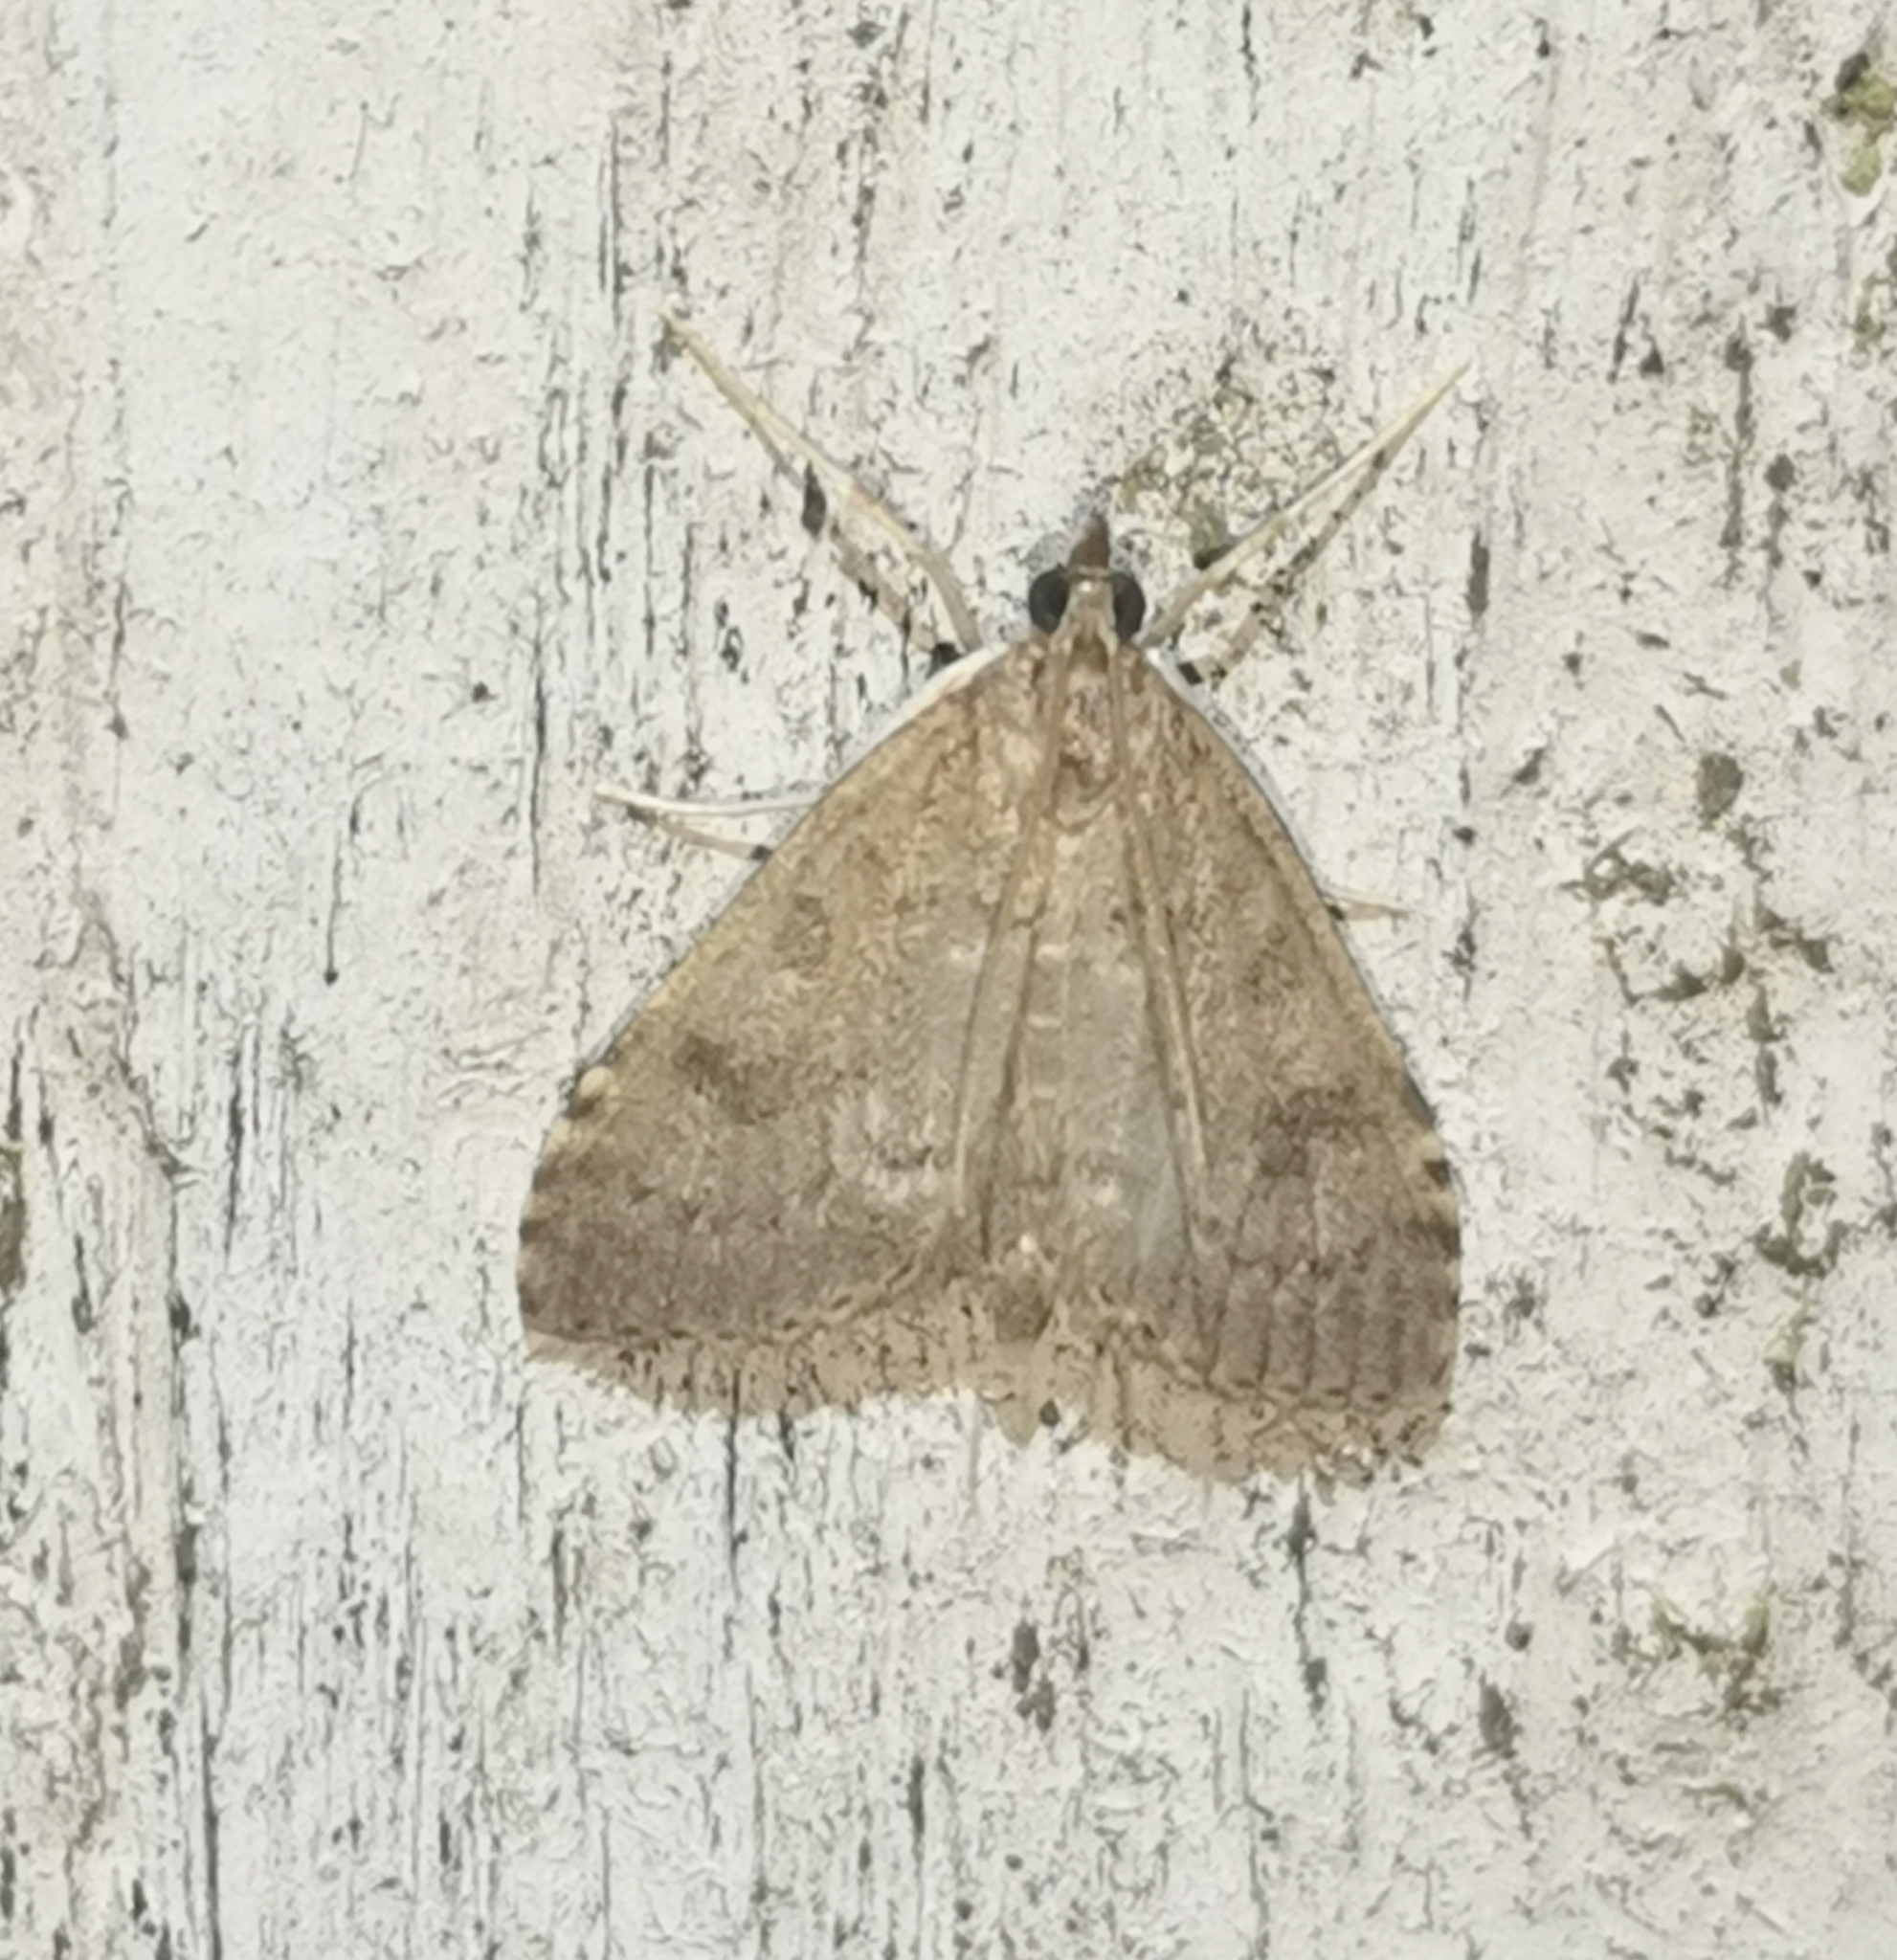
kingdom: Animalia
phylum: Arthropoda
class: Insecta
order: Lepidoptera
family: Crambidae
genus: Udea
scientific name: Udea prunalis
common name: Dusky pearl
